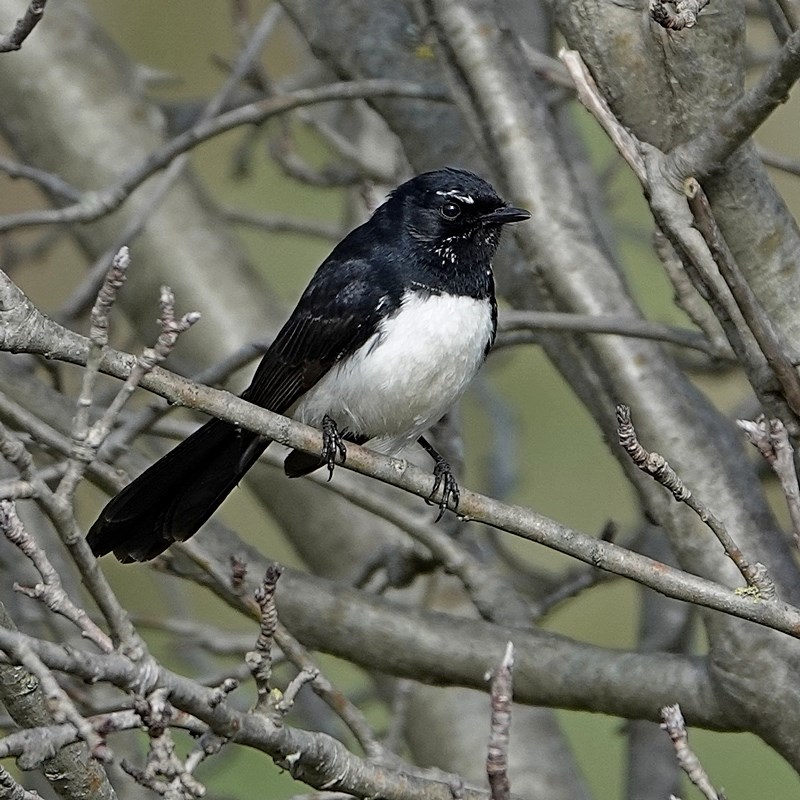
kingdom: Animalia
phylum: Chordata
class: Aves
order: Passeriformes
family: Rhipiduridae
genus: Rhipidura
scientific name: Rhipidura leucophrys
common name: Willie wagtail
